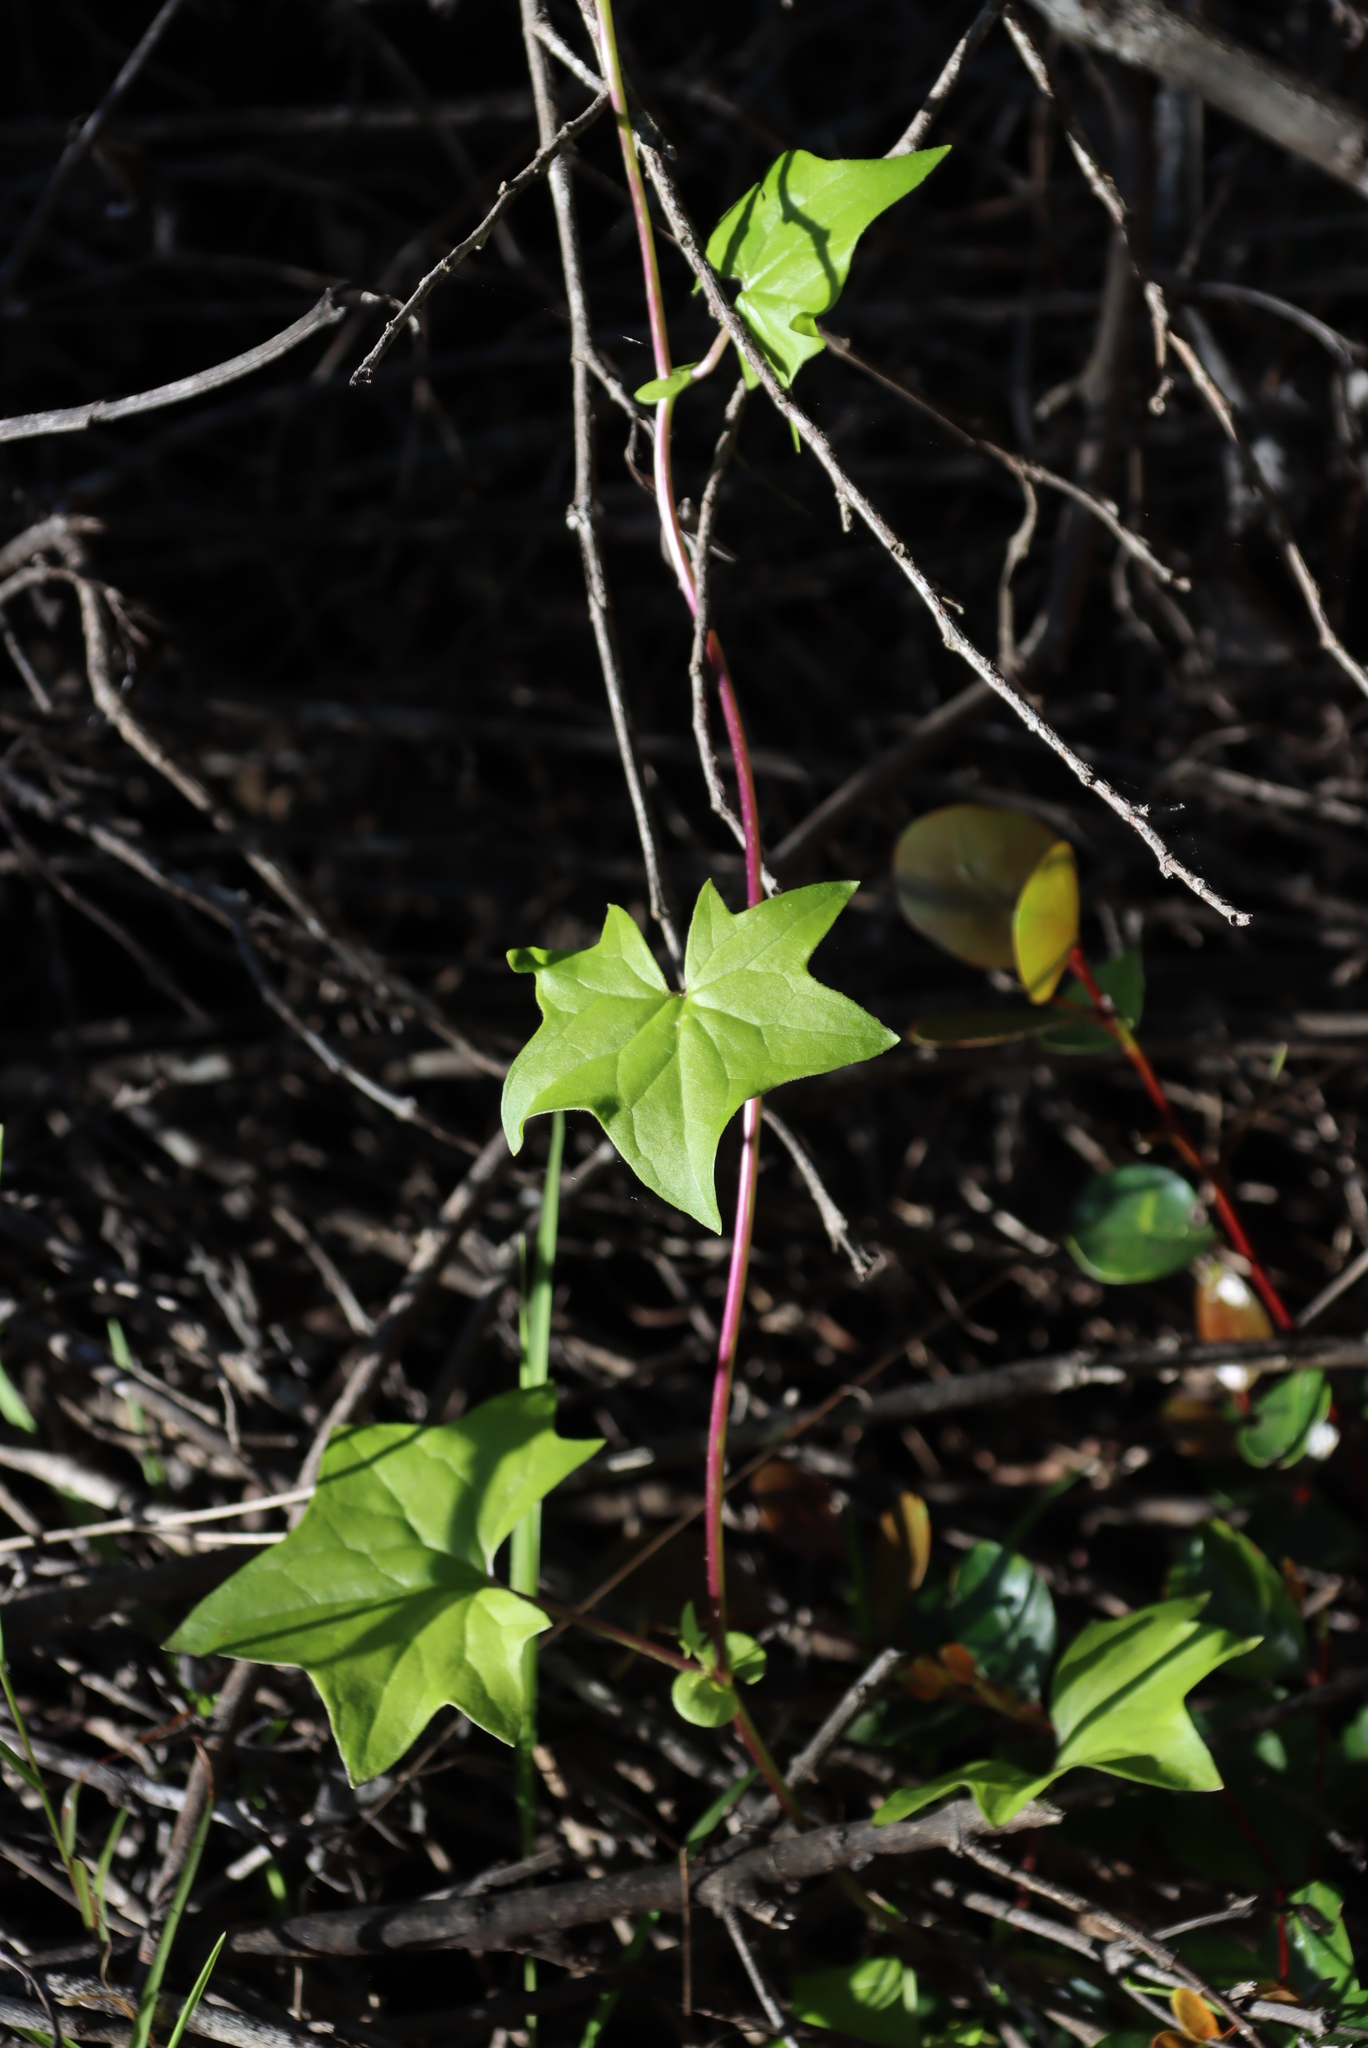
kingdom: Plantae
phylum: Tracheophyta
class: Magnoliopsida
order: Asterales
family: Asteraceae
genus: Senecio
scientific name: Senecio deltoideus
